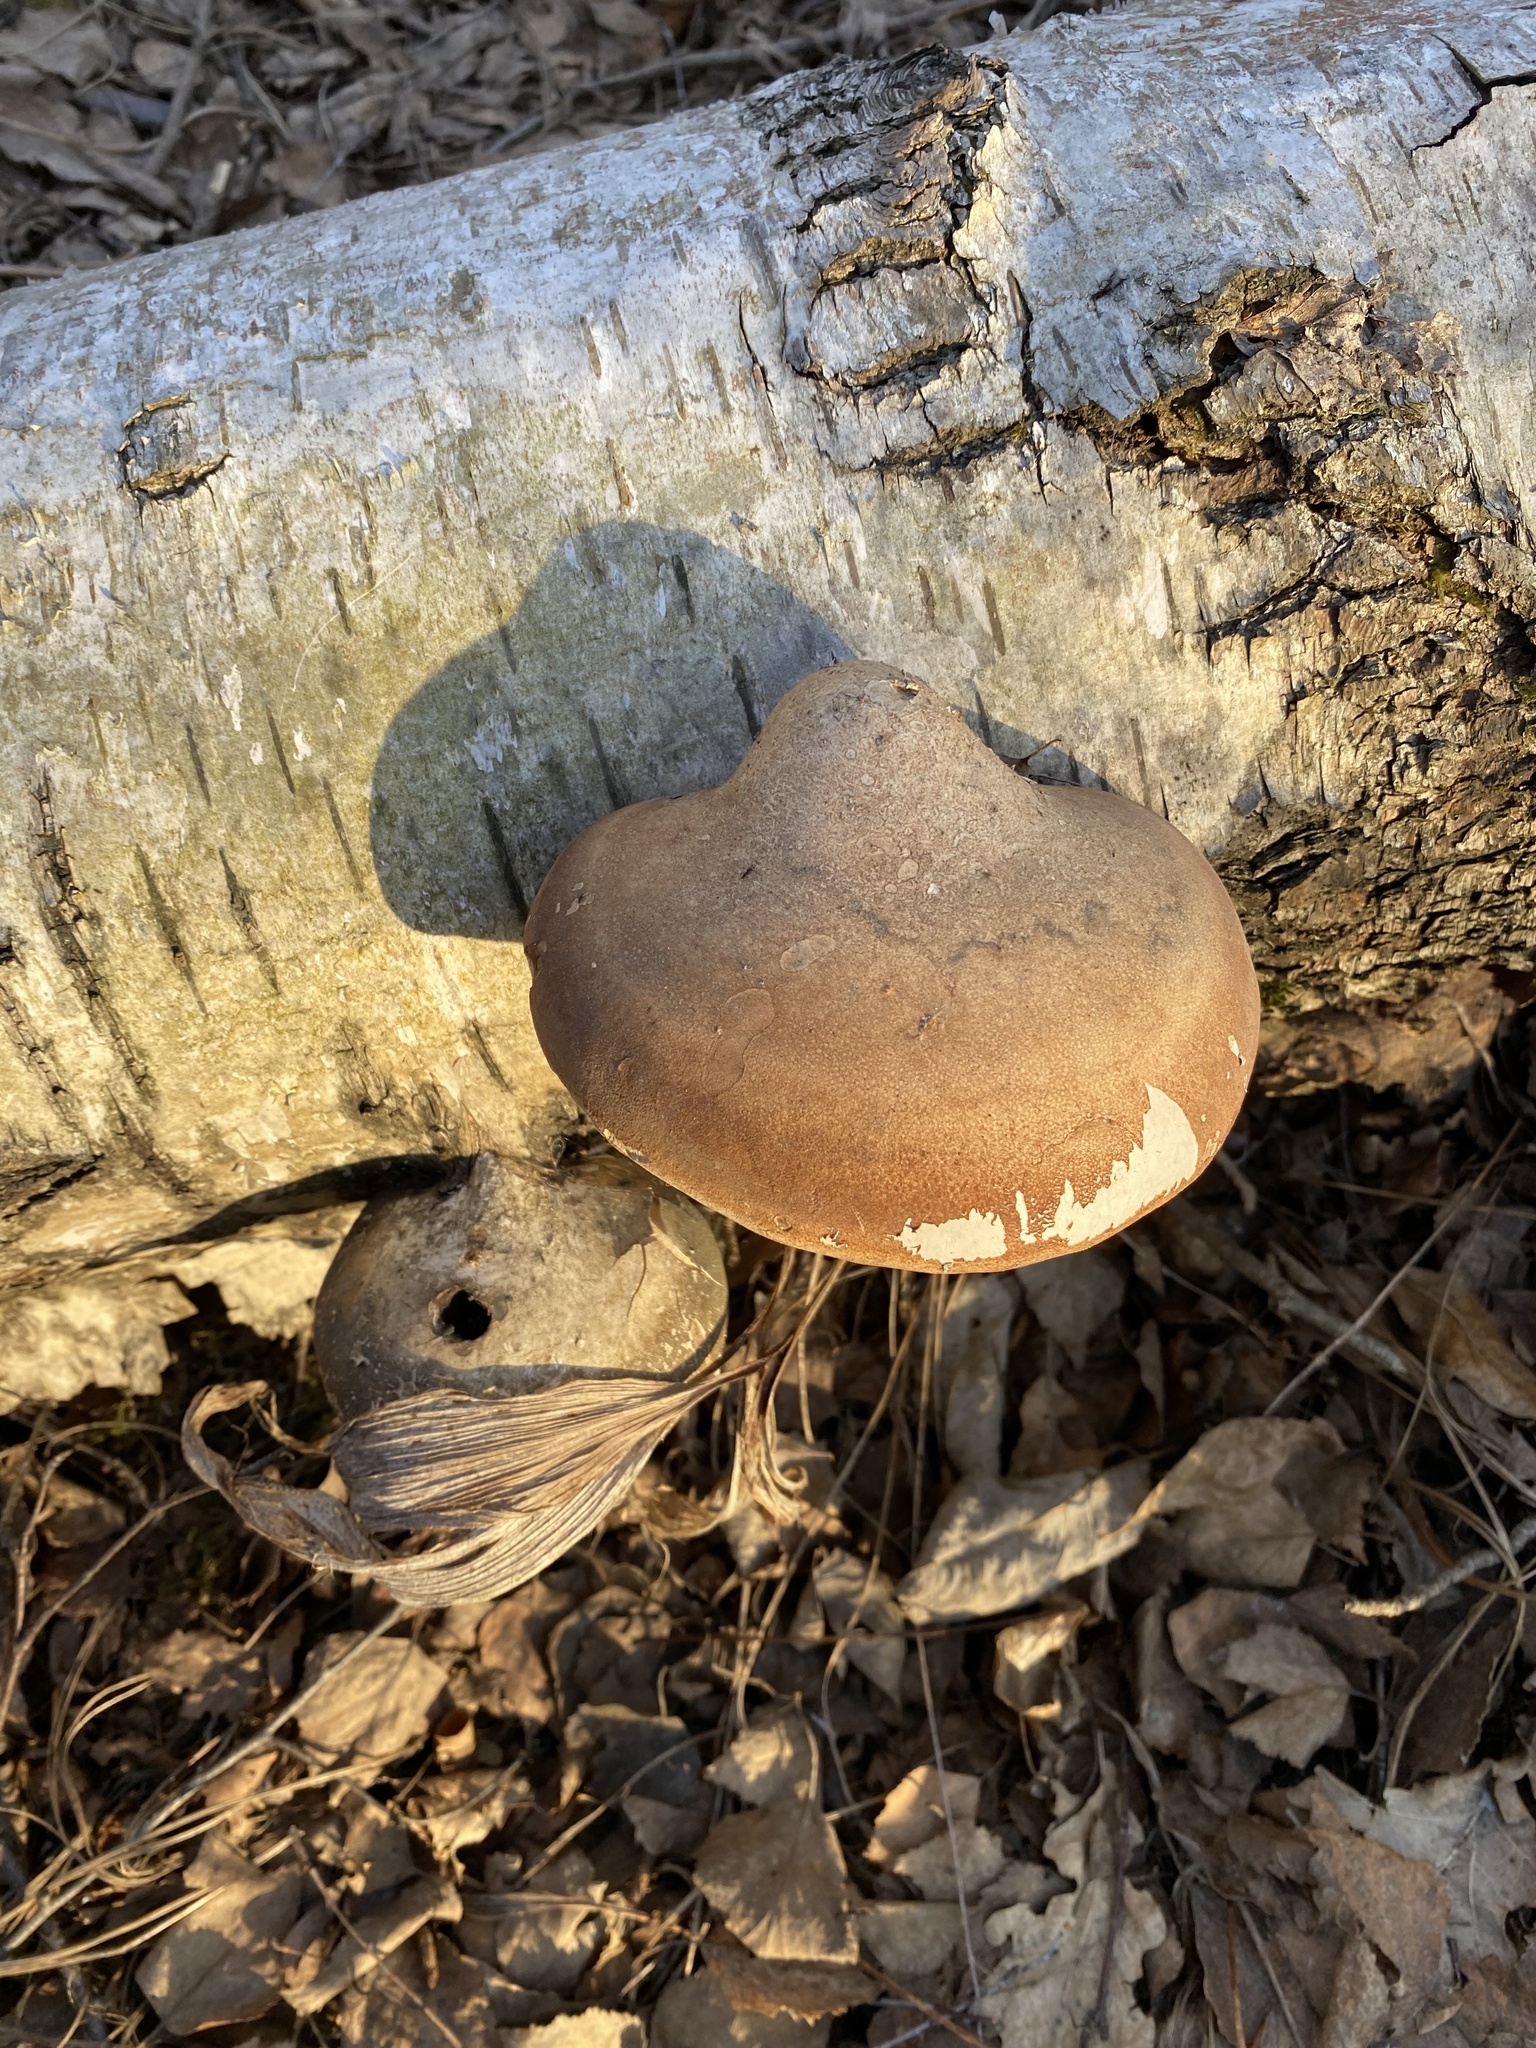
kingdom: Fungi
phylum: Basidiomycota
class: Agaricomycetes
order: Polyporales
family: Fomitopsidaceae
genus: Fomitopsis
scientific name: Fomitopsis betulina
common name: Birch polypore
